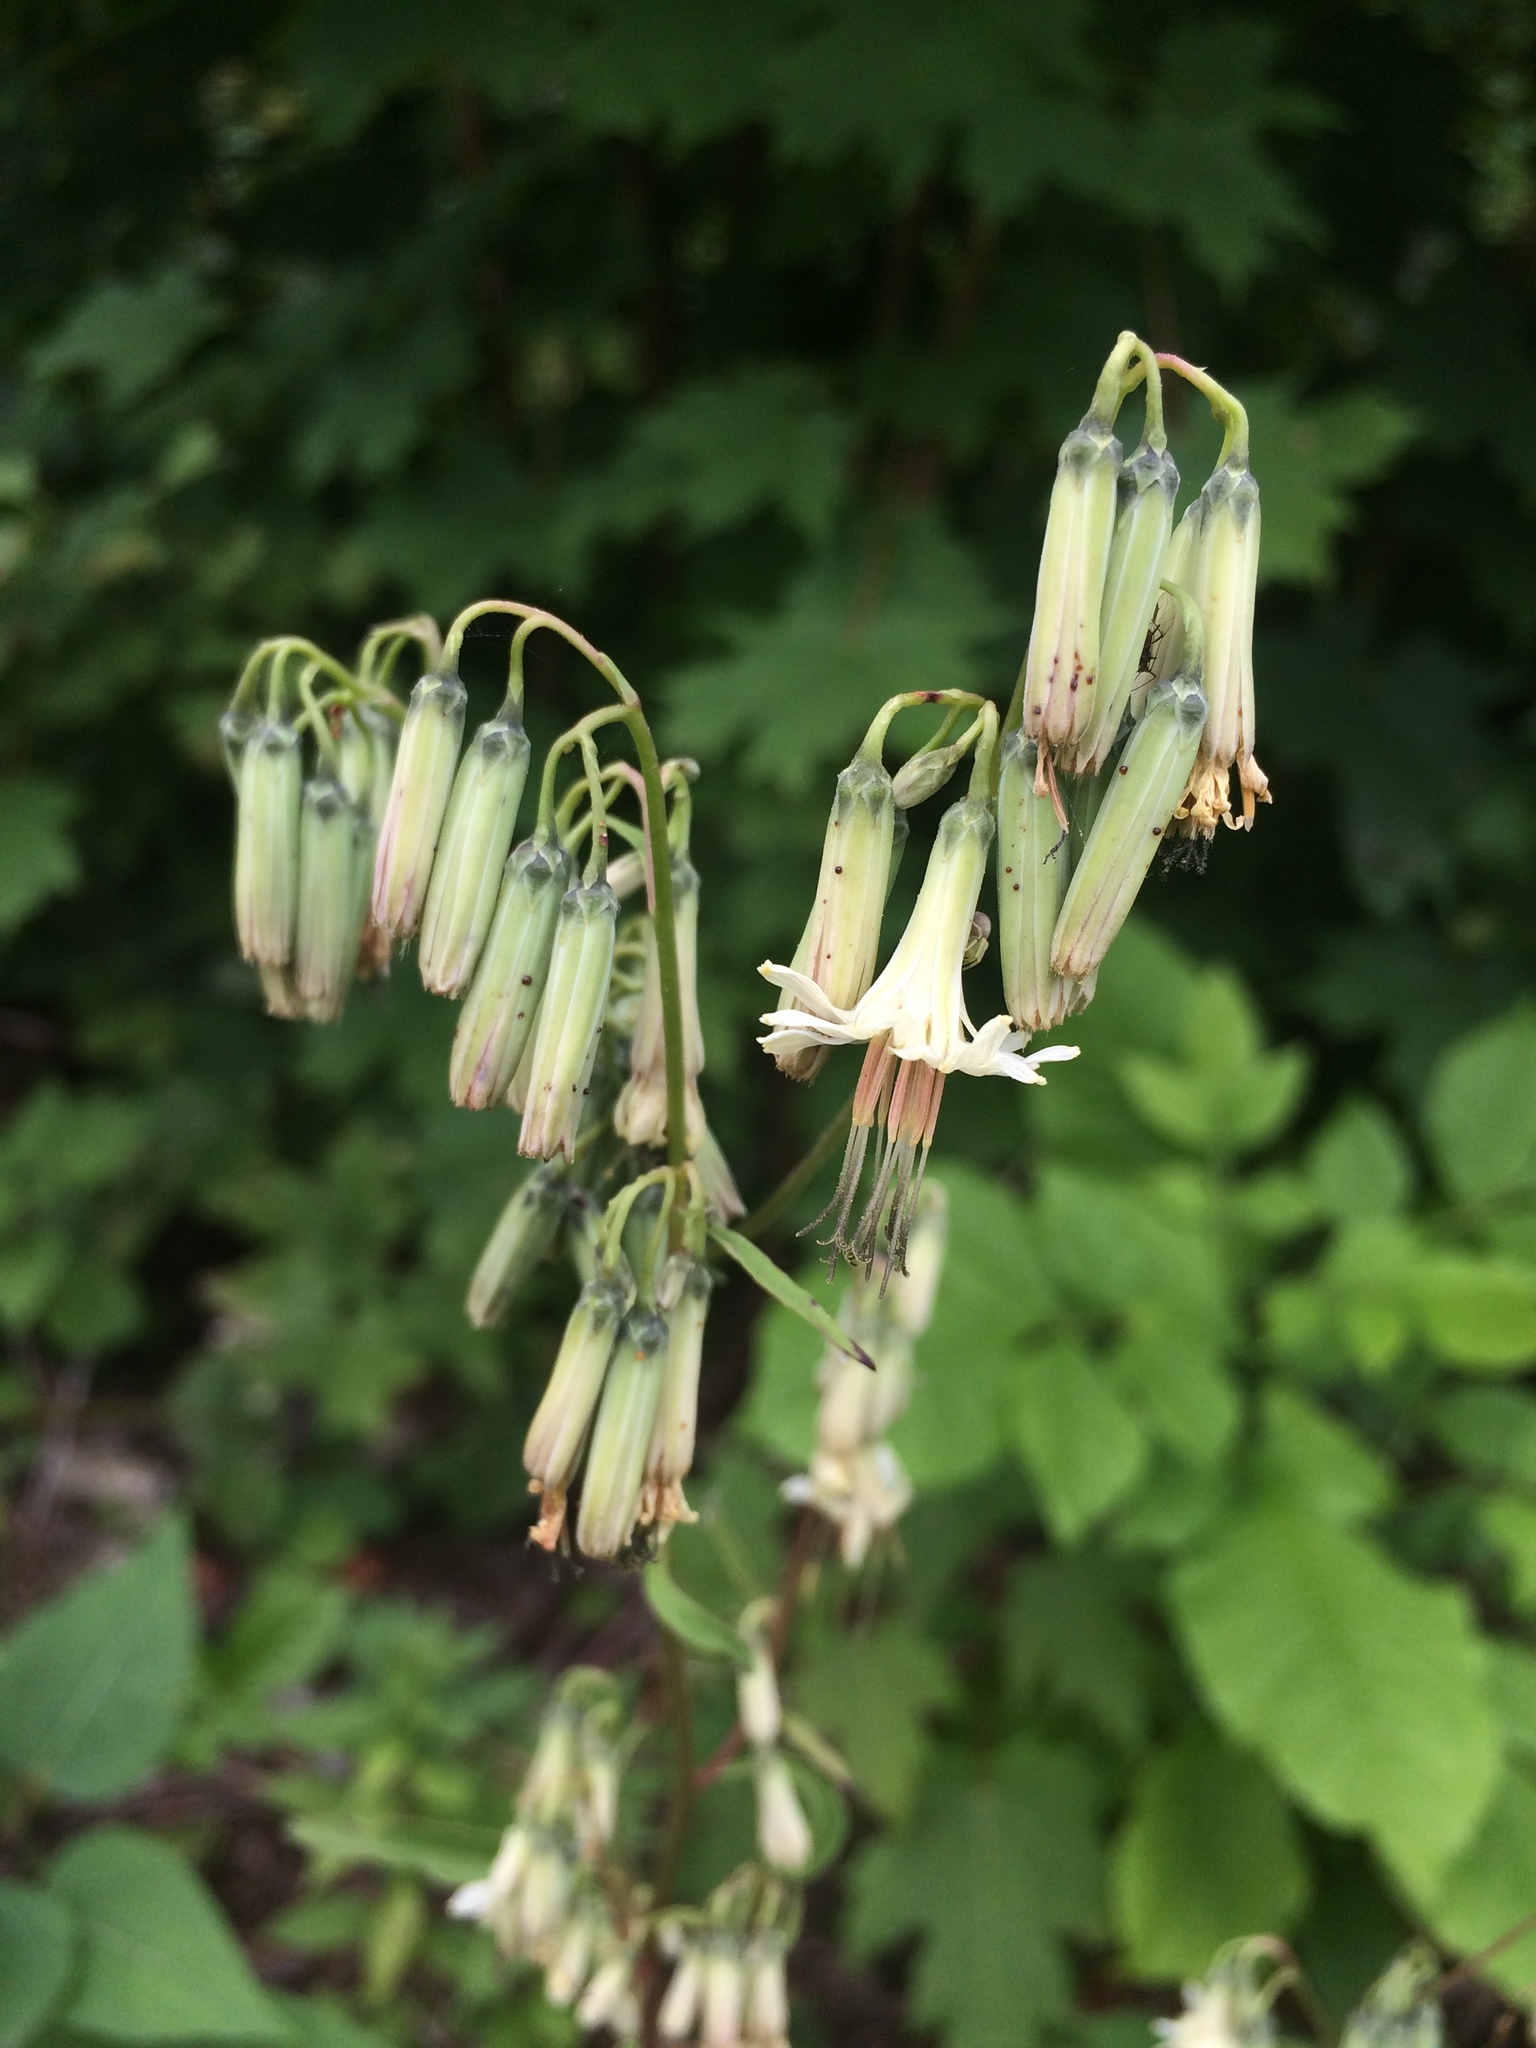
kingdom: Plantae
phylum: Tracheophyta
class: Magnoliopsida
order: Asterales
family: Asteraceae
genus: Nabalus
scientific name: Nabalus trifoliolatus
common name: Gall-of-the-earth
